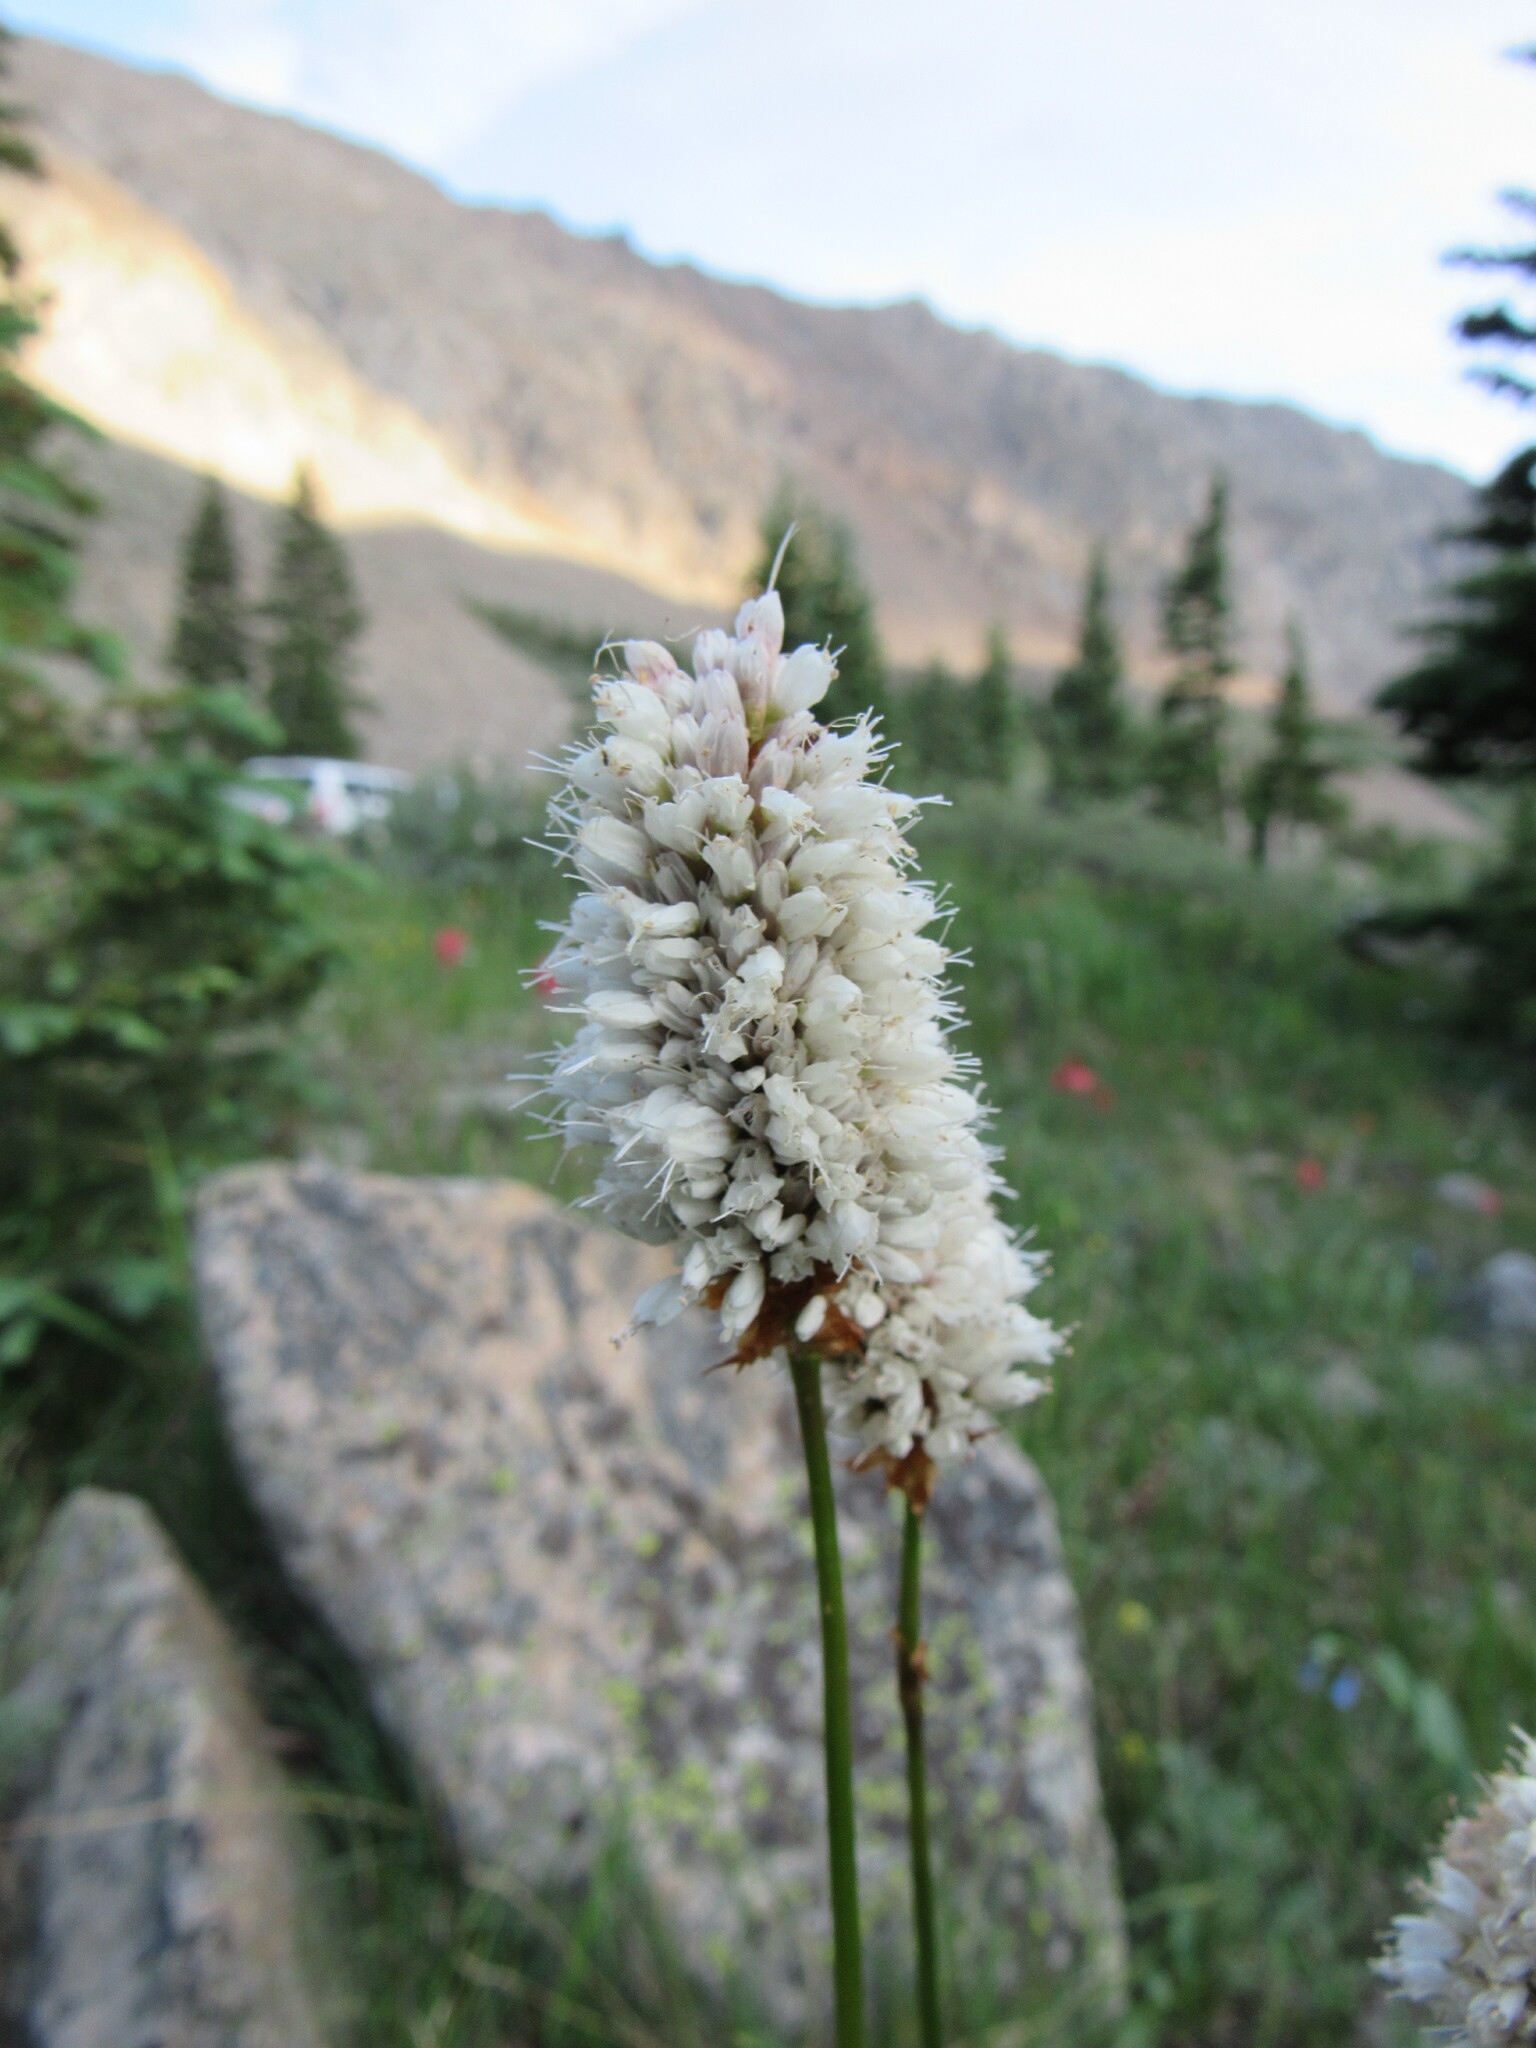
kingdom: Plantae
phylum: Tracheophyta
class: Magnoliopsida
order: Caryophyllales
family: Polygonaceae
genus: Bistorta
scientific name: Bistorta bistortoides
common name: American bistort
